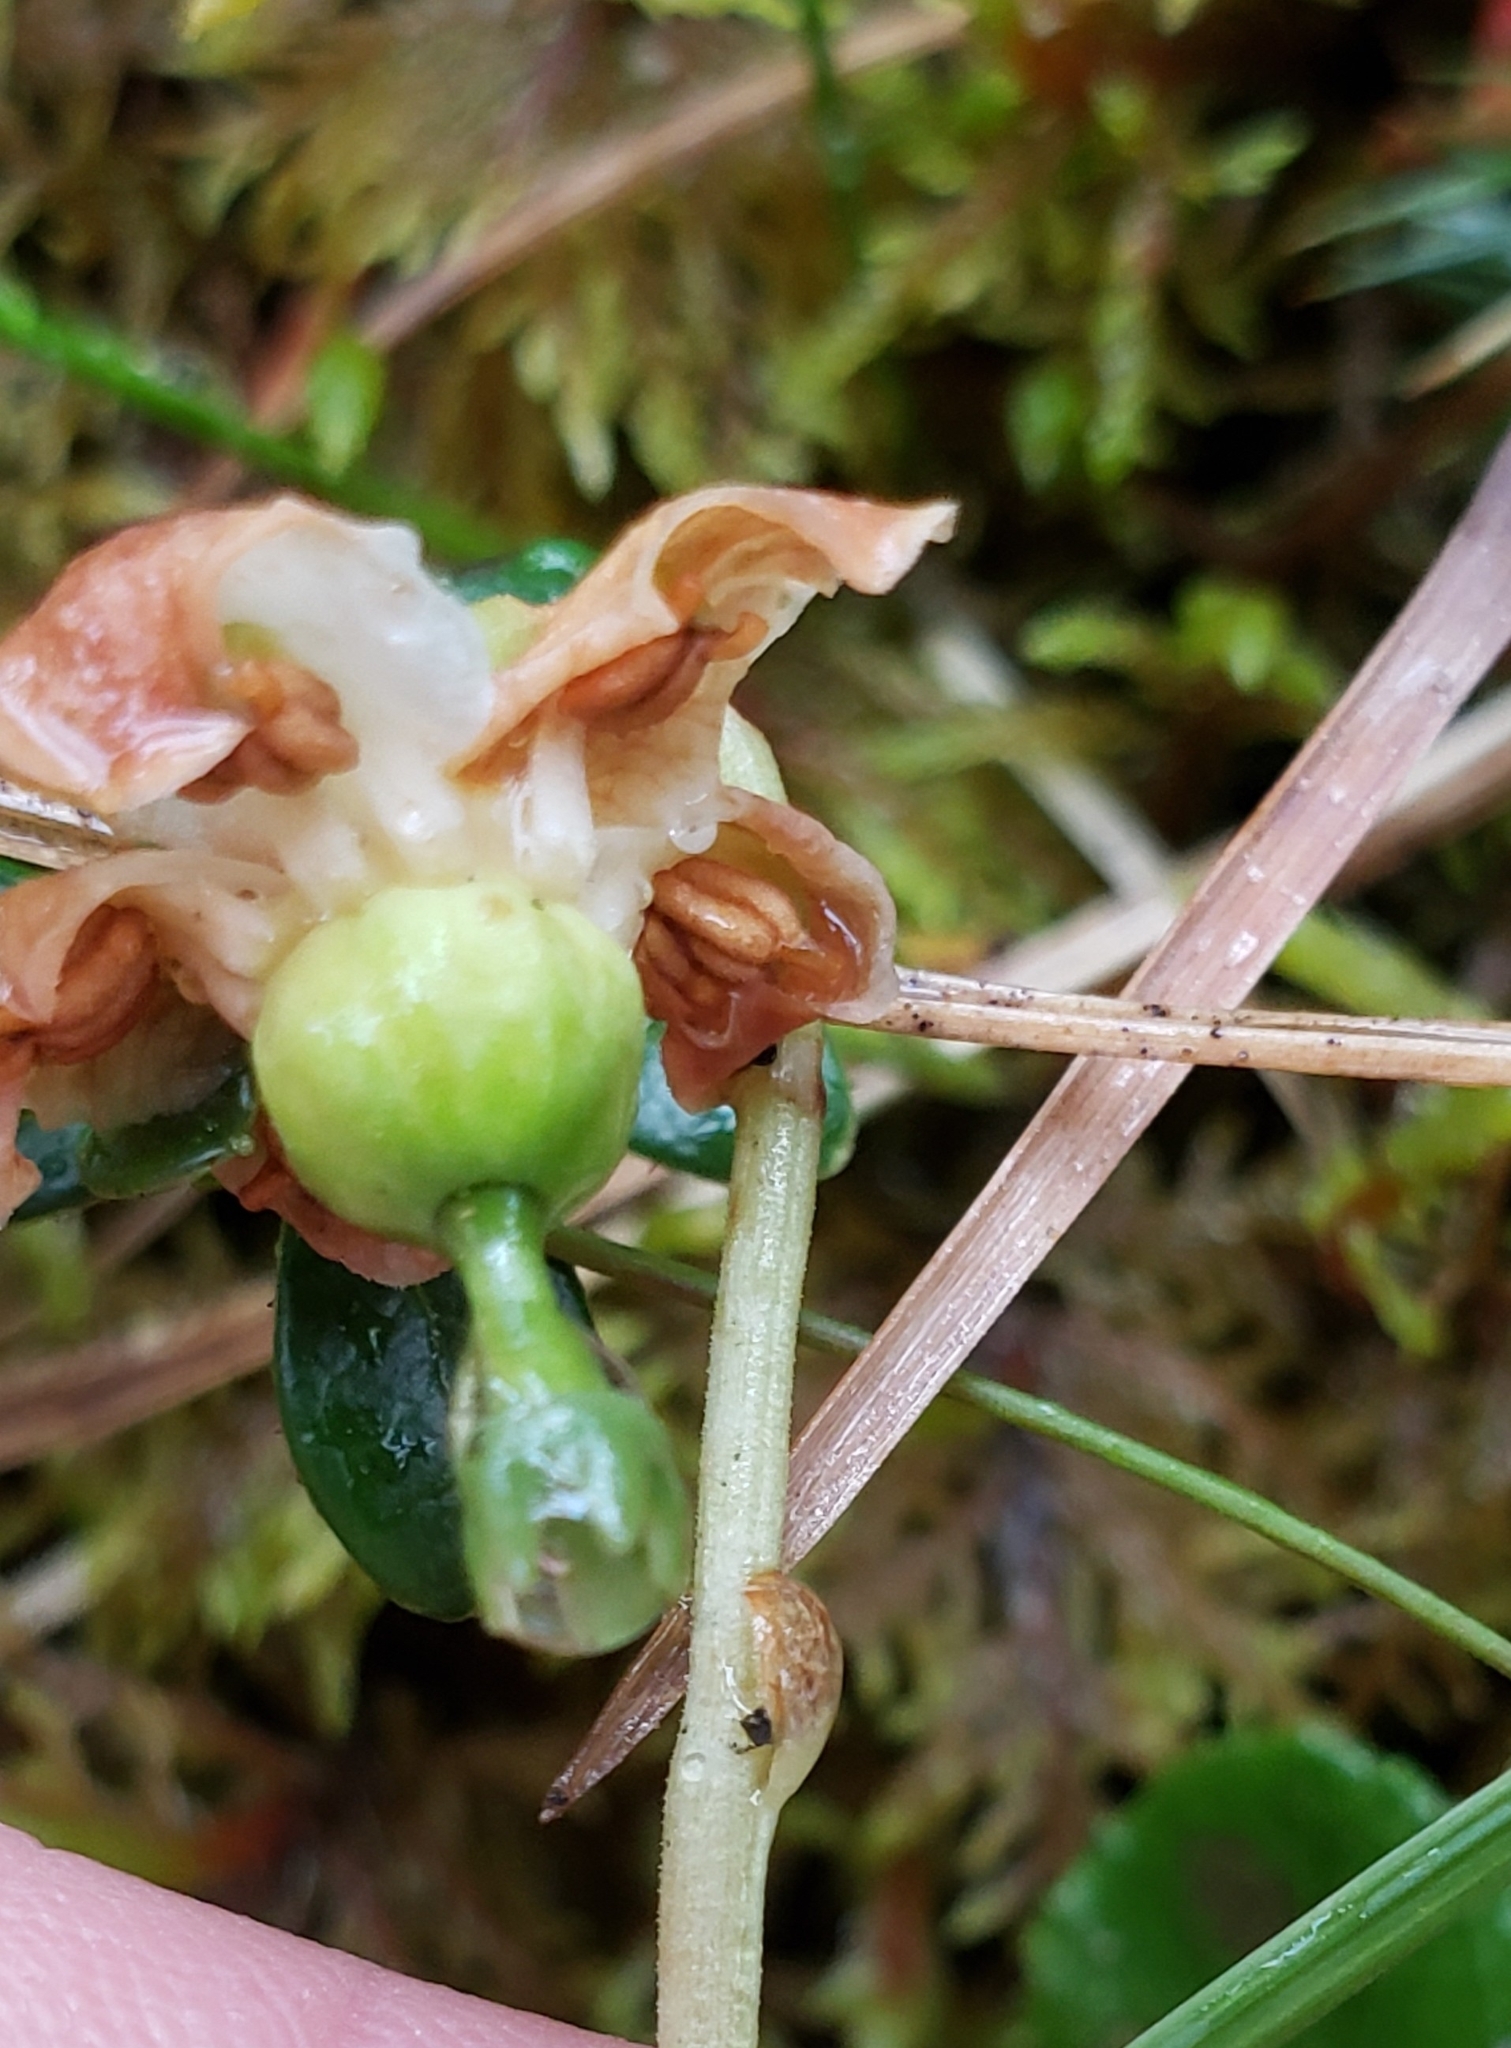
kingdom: Plantae
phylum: Tracheophyta
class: Magnoliopsida
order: Ericales
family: Ericaceae
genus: Moneses
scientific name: Moneses uniflora
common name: One-flowered wintergreen
